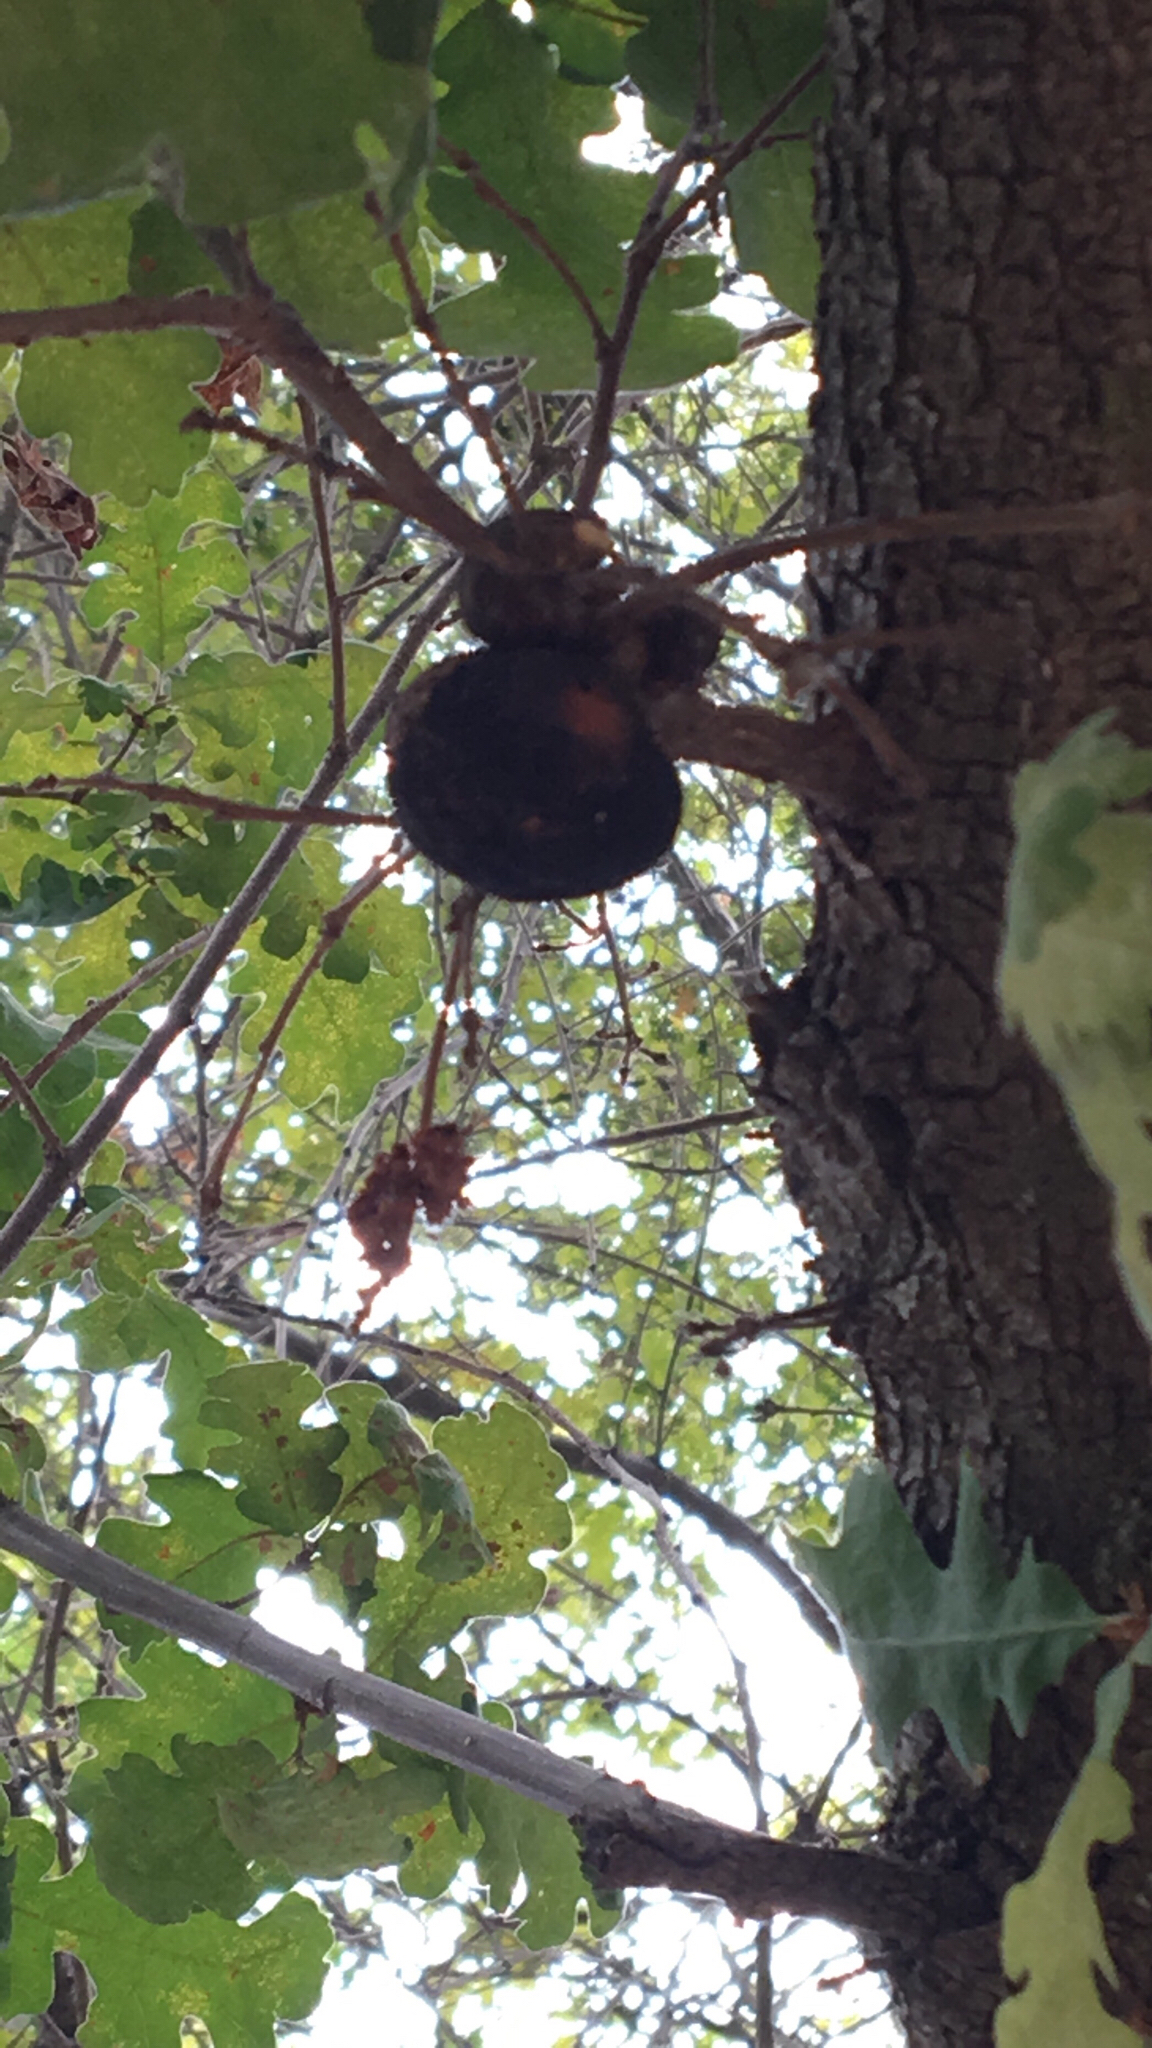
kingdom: Animalia
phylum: Arthropoda
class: Insecta
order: Hymenoptera
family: Cynipidae
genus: Andricus
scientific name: Andricus quercuscalifornicus
